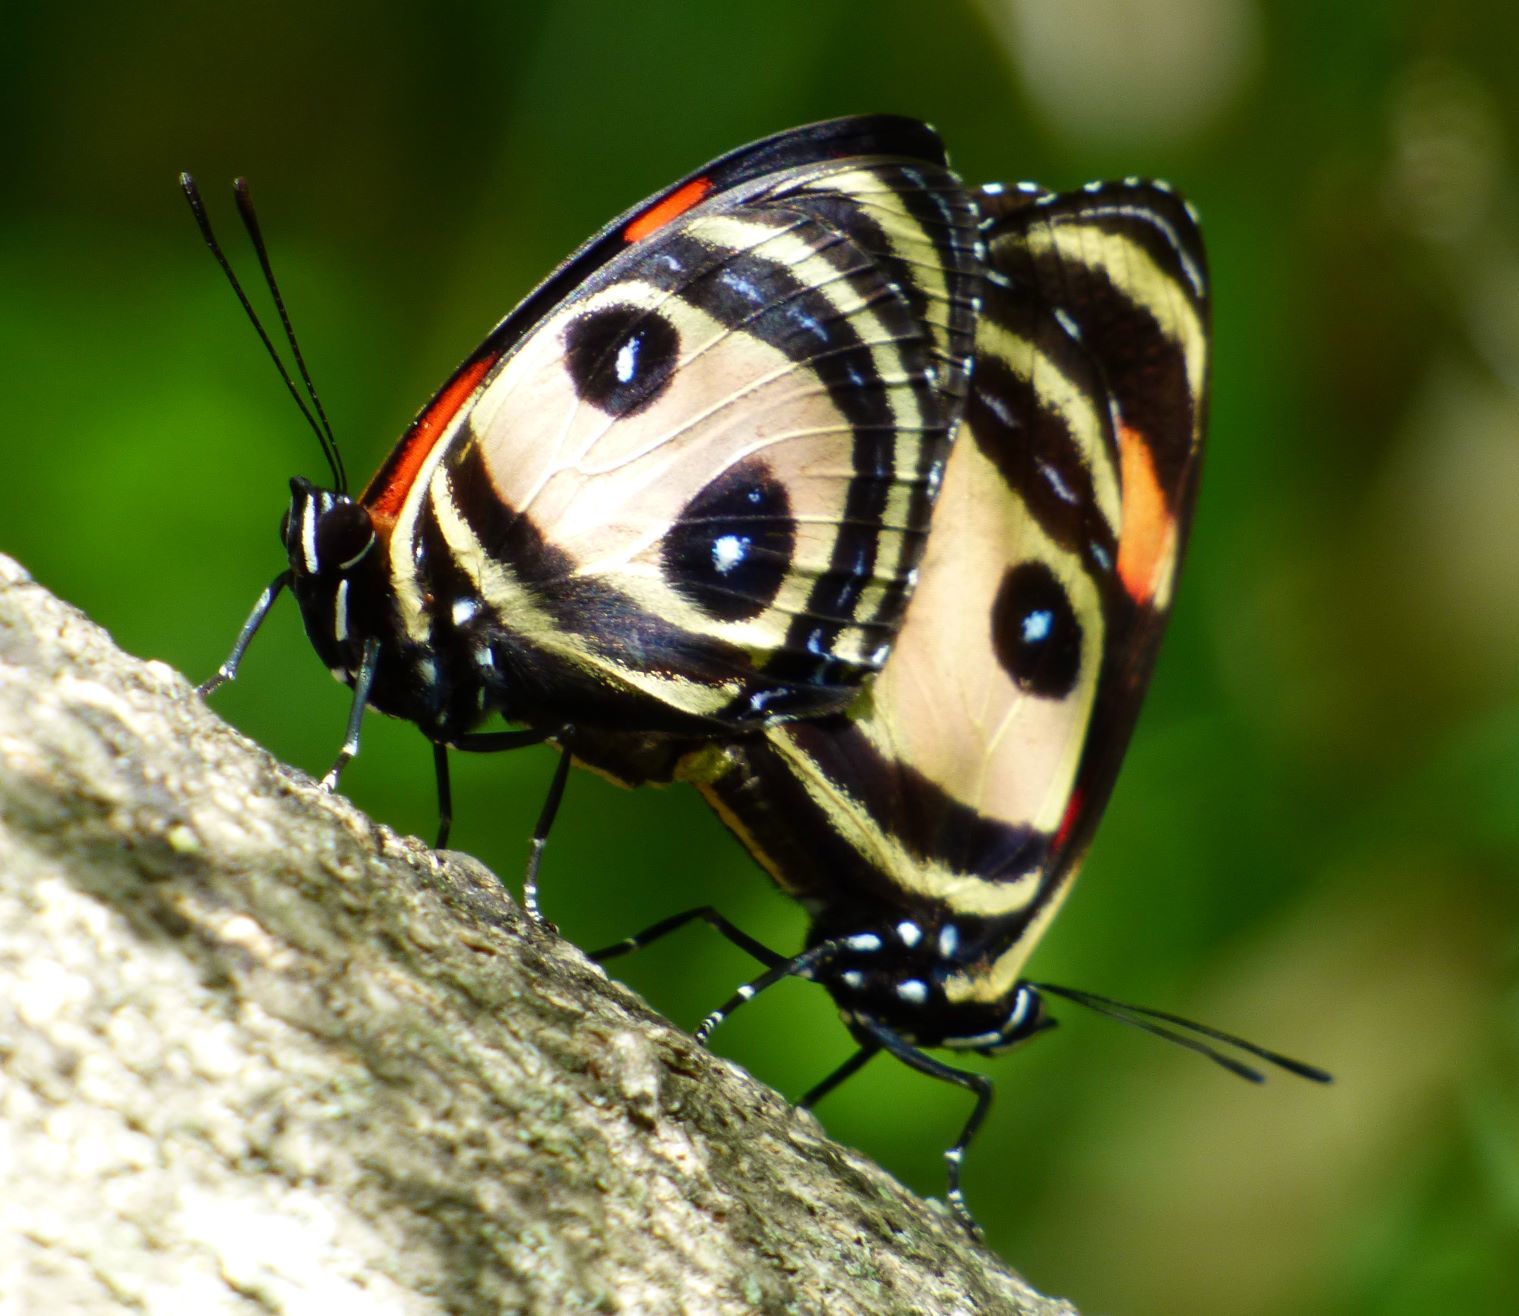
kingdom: Animalia
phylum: Arthropoda
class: Insecta
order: Lepidoptera
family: Nymphalidae
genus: Catagramma
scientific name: Catagramma Callicore pitheas
